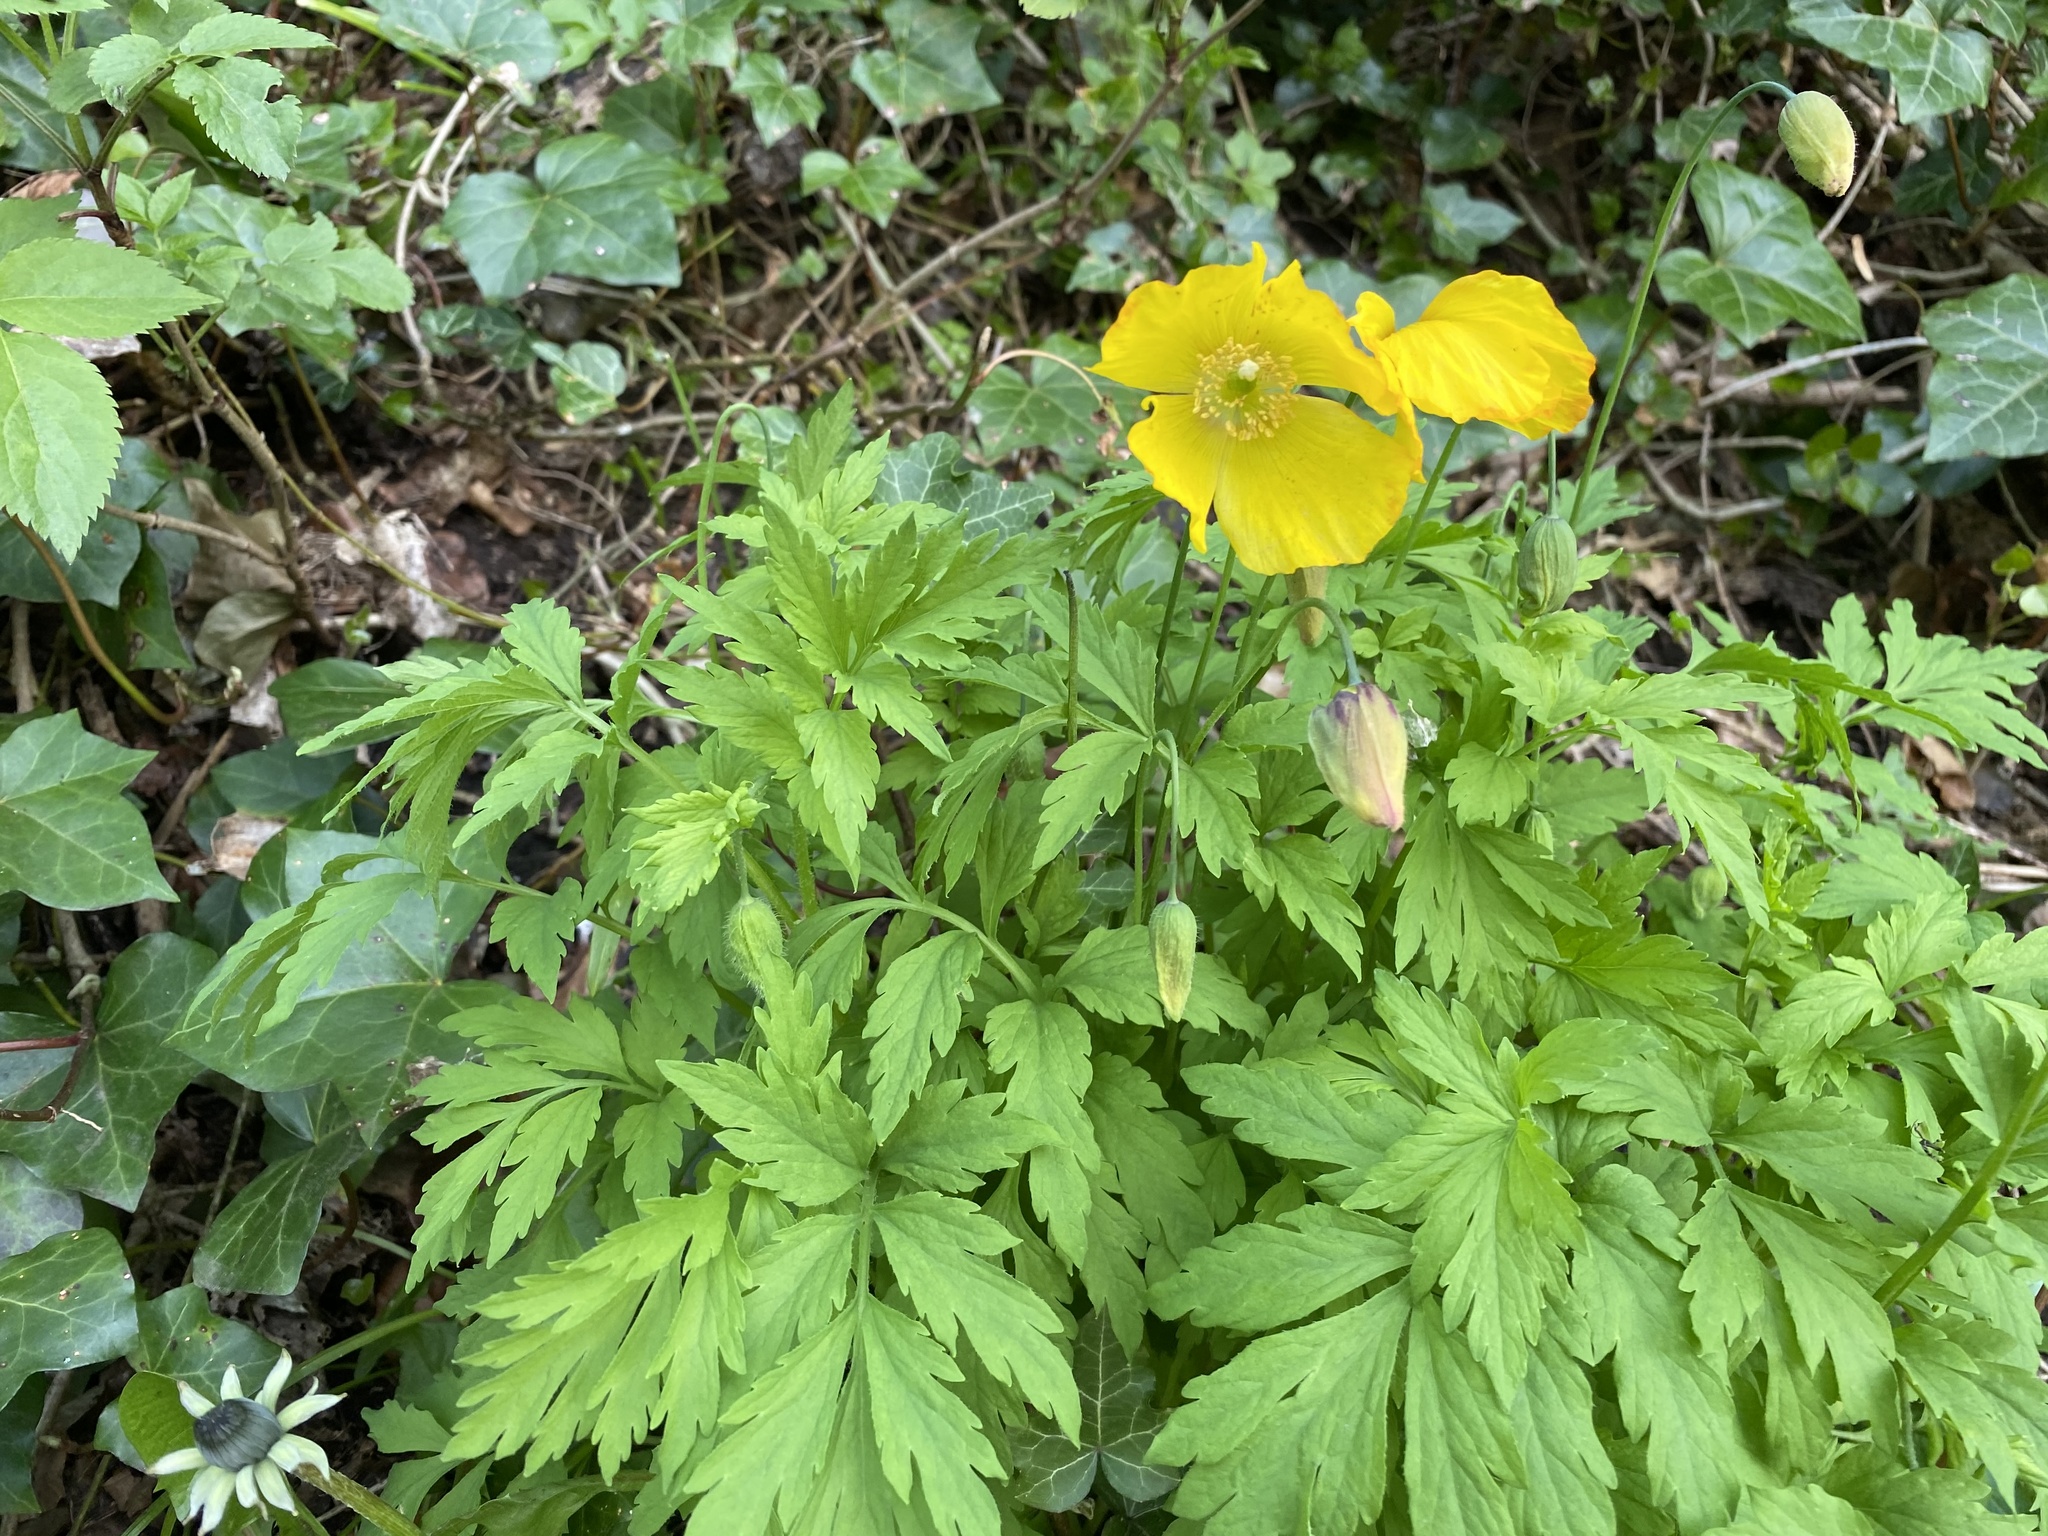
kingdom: Plantae
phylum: Tracheophyta
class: Magnoliopsida
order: Ranunculales
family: Papaveraceae
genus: Papaver
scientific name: Papaver cambricum
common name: Poppy
